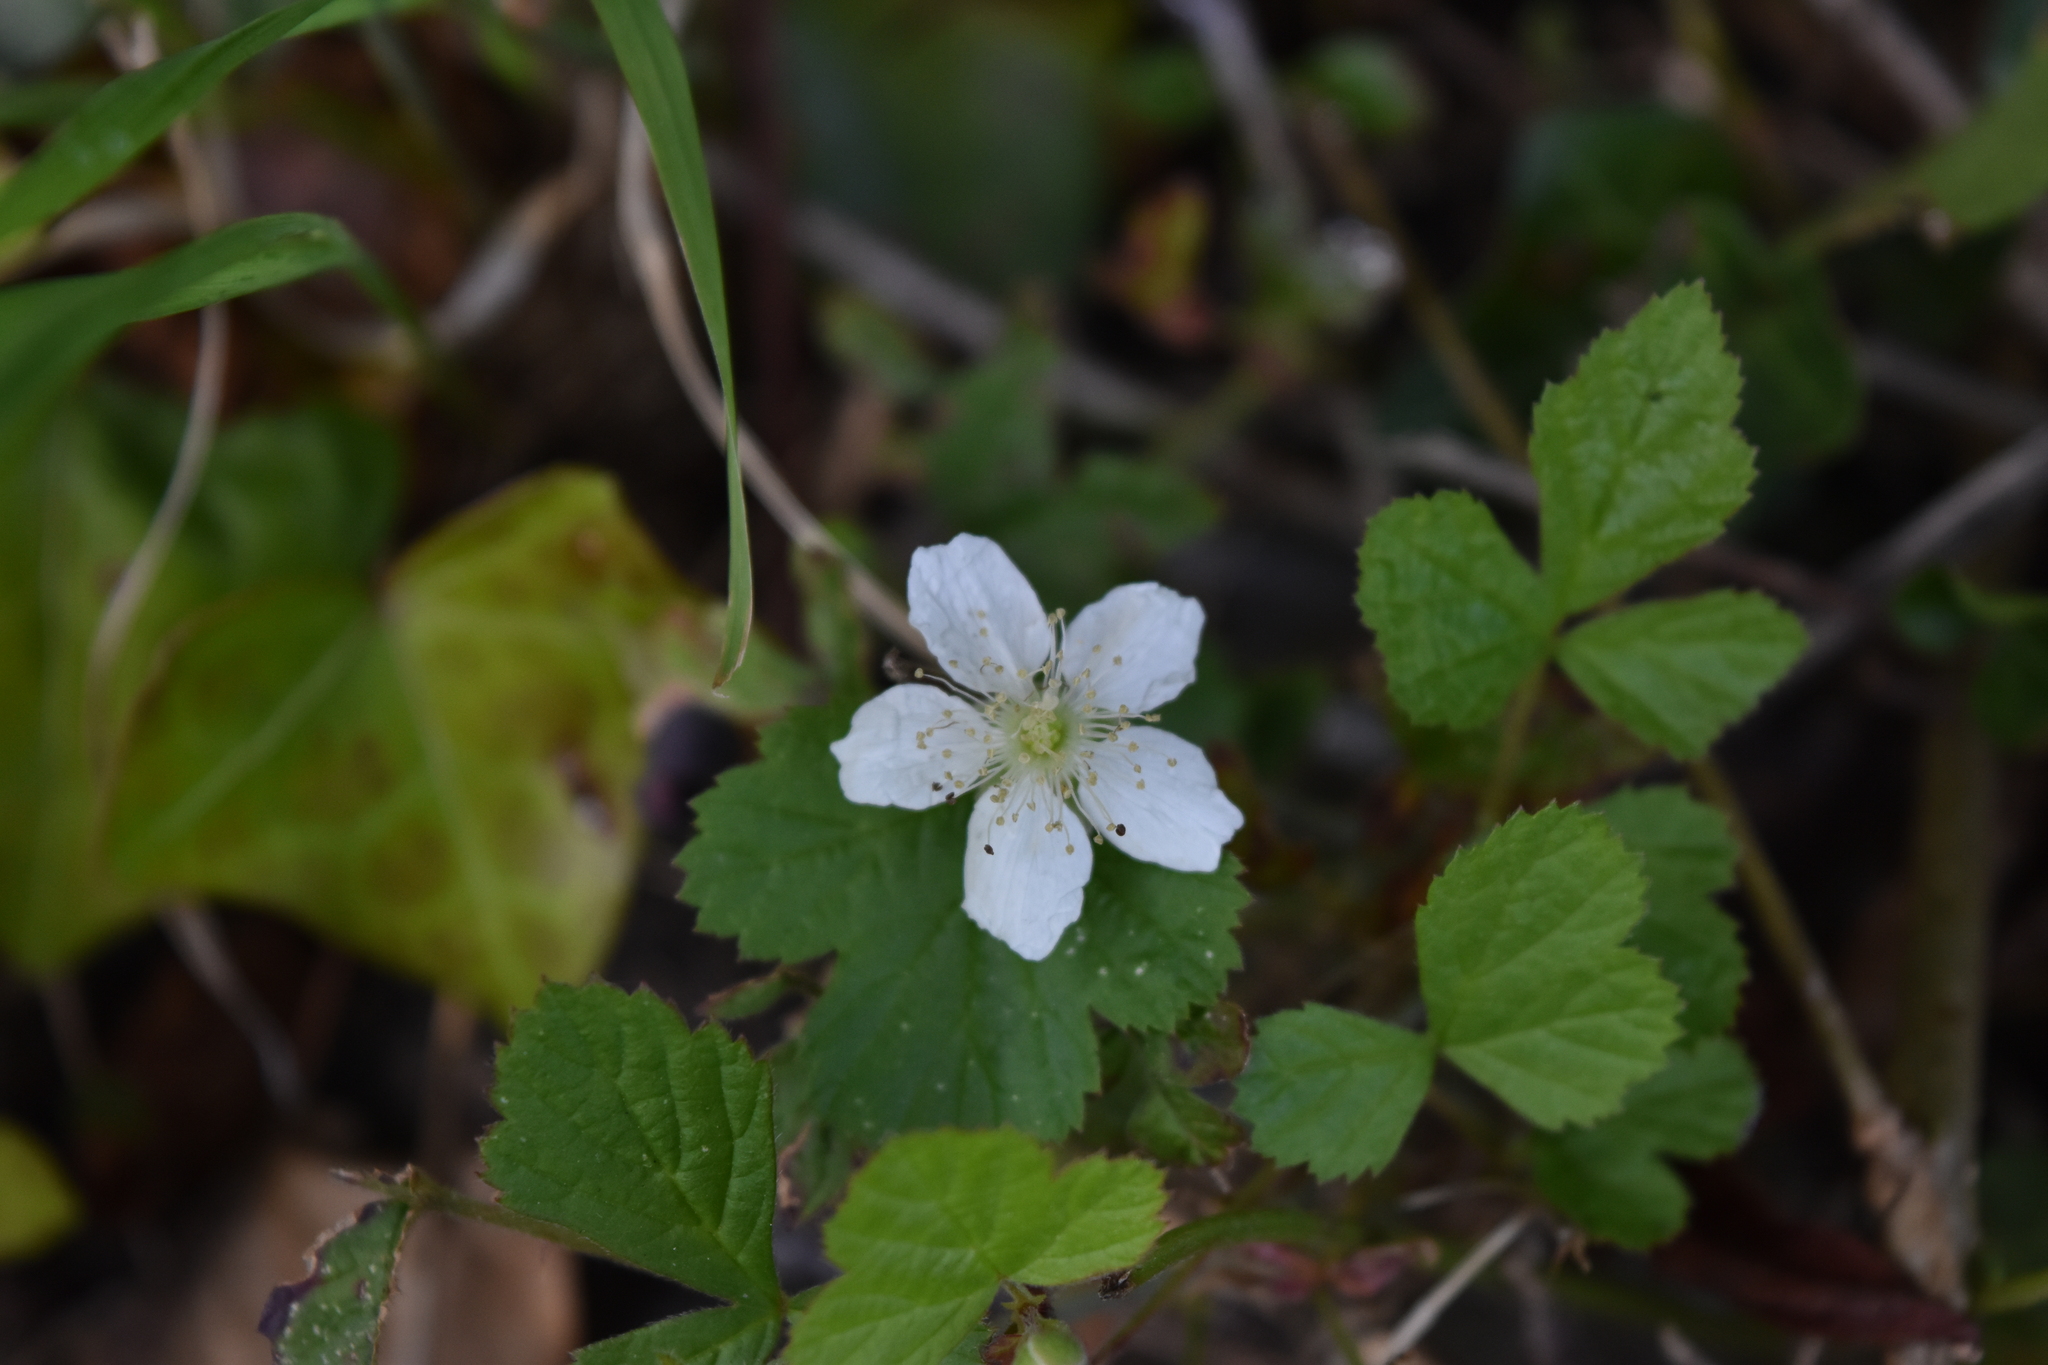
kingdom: Plantae
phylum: Tracheophyta
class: Magnoliopsida
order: Rosales
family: Rosaceae
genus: Rubus
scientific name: Rubus caesius
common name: Dewberry
